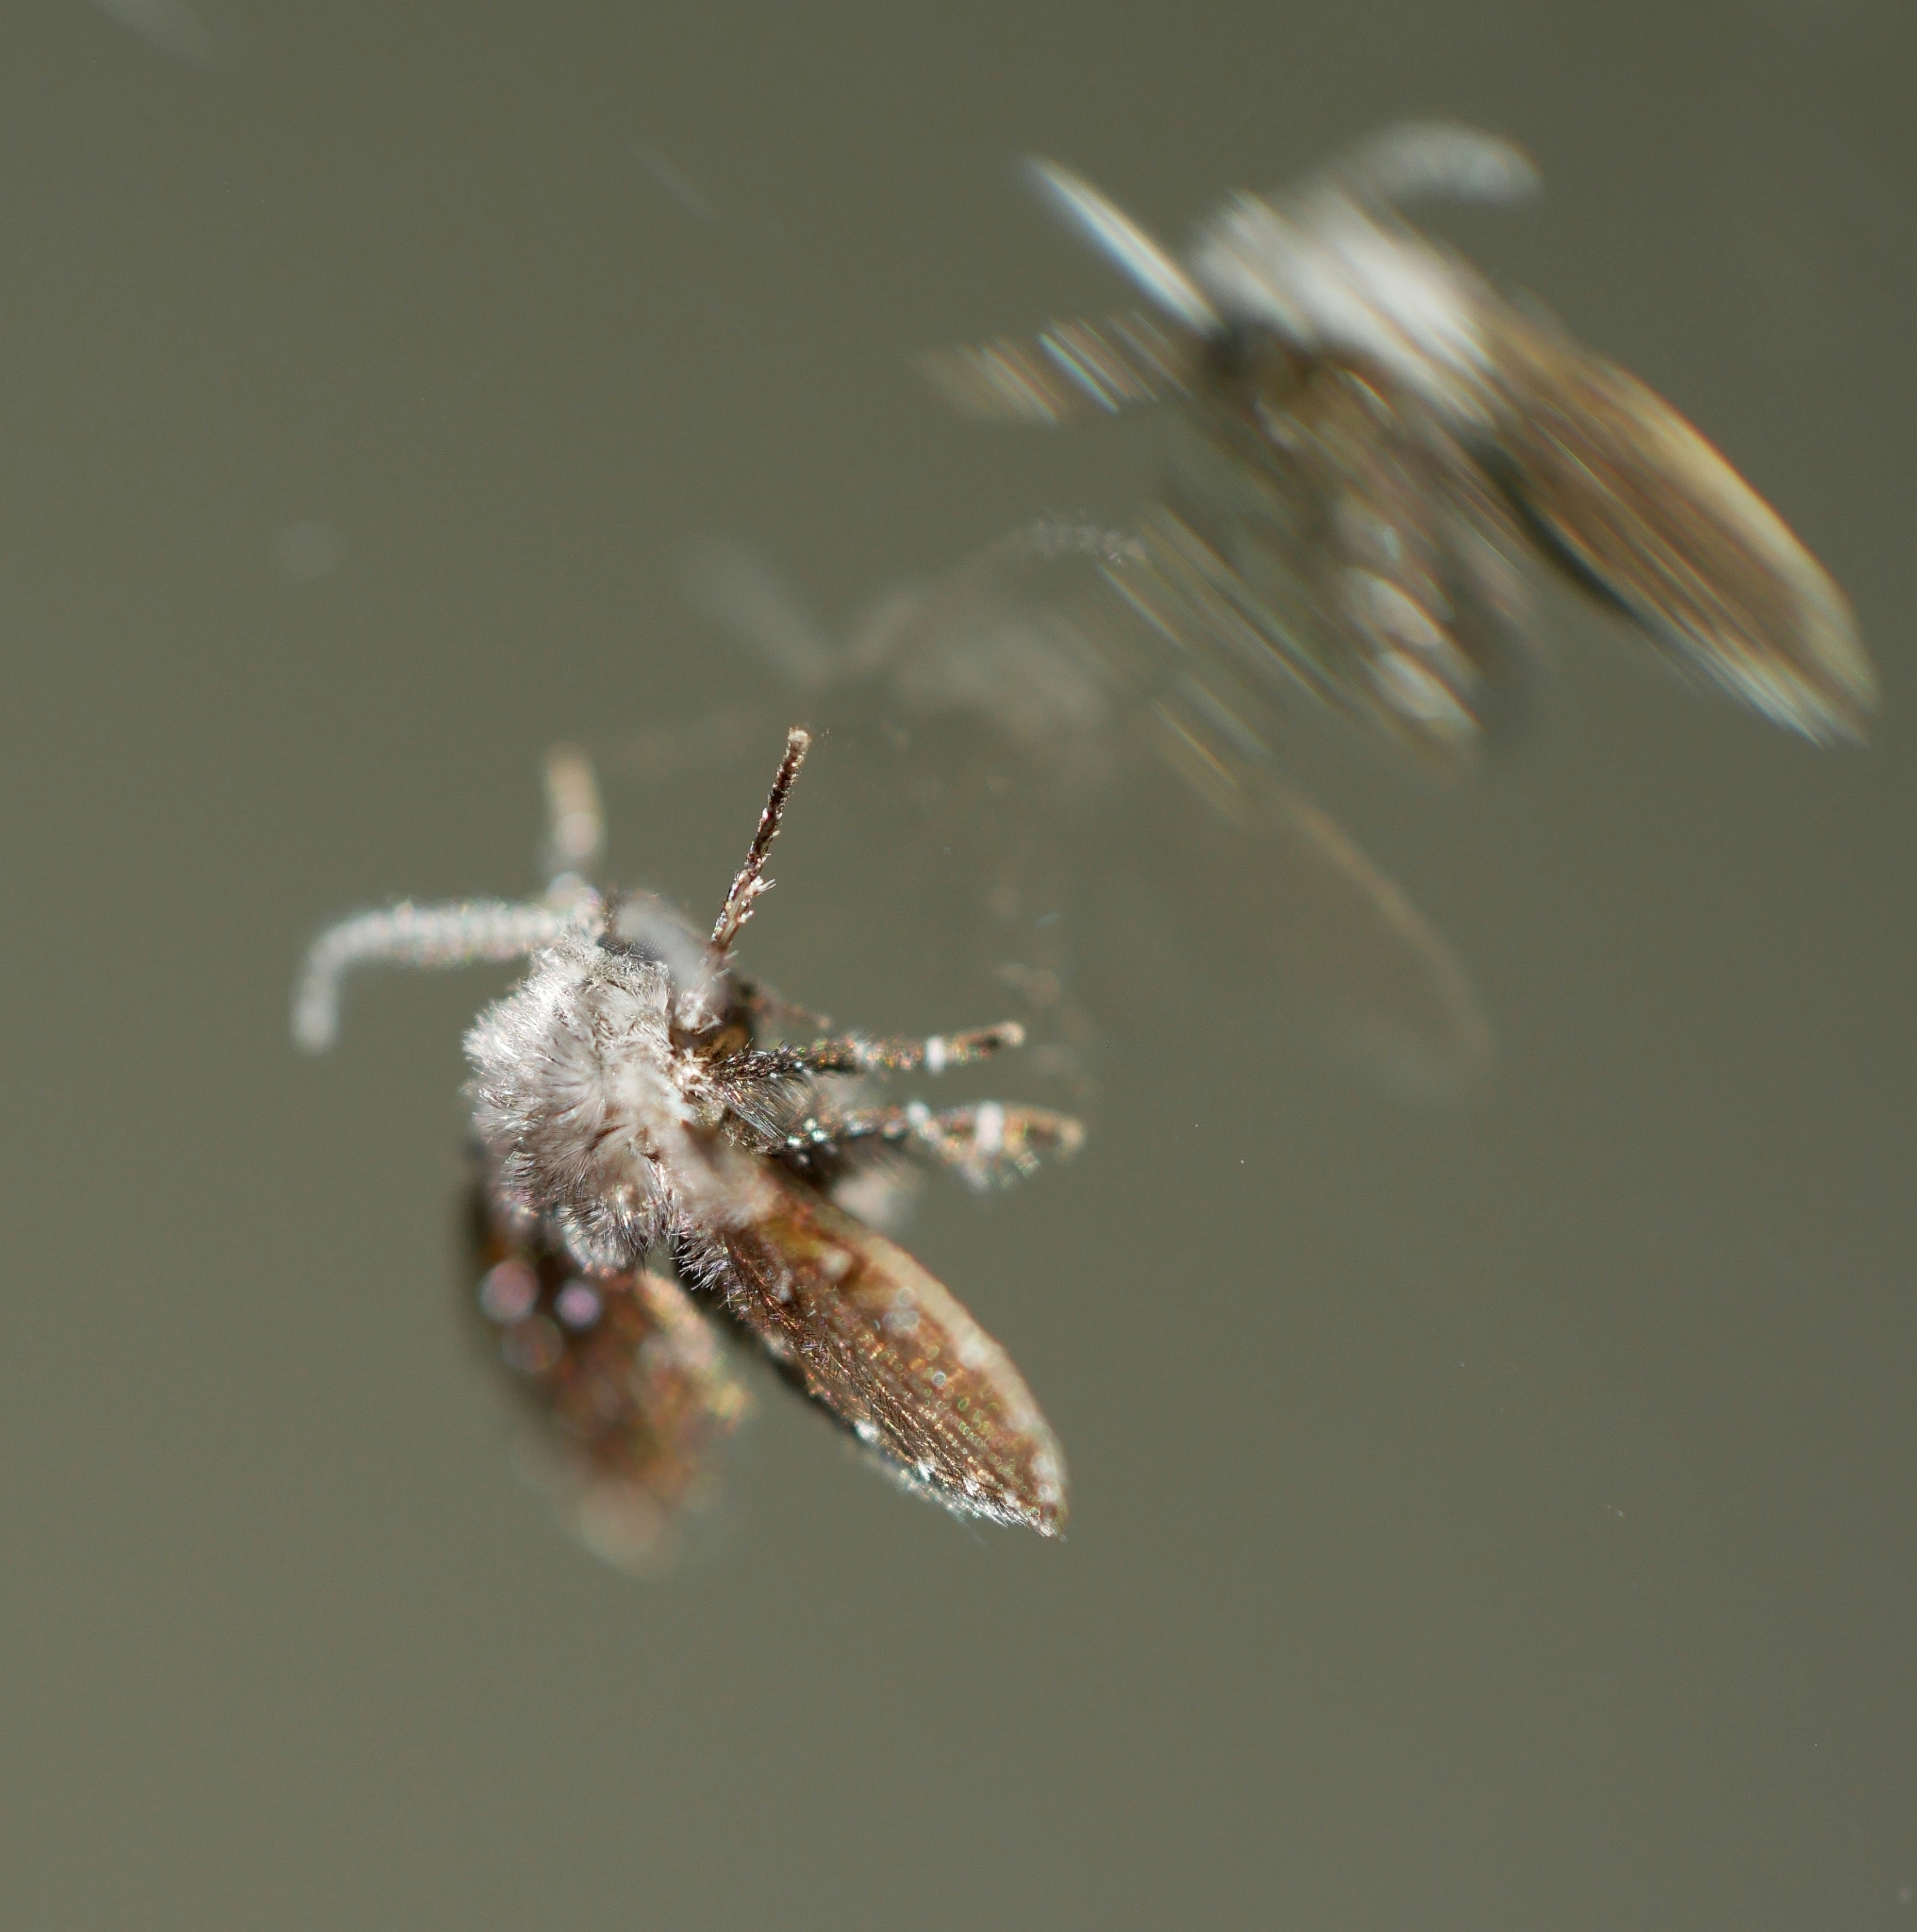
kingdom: Animalia
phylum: Arthropoda
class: Insecta
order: Diptera
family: Psychodidae
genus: Clogmia
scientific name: Clogmia albipunctatus
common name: White-spotted moth fly
